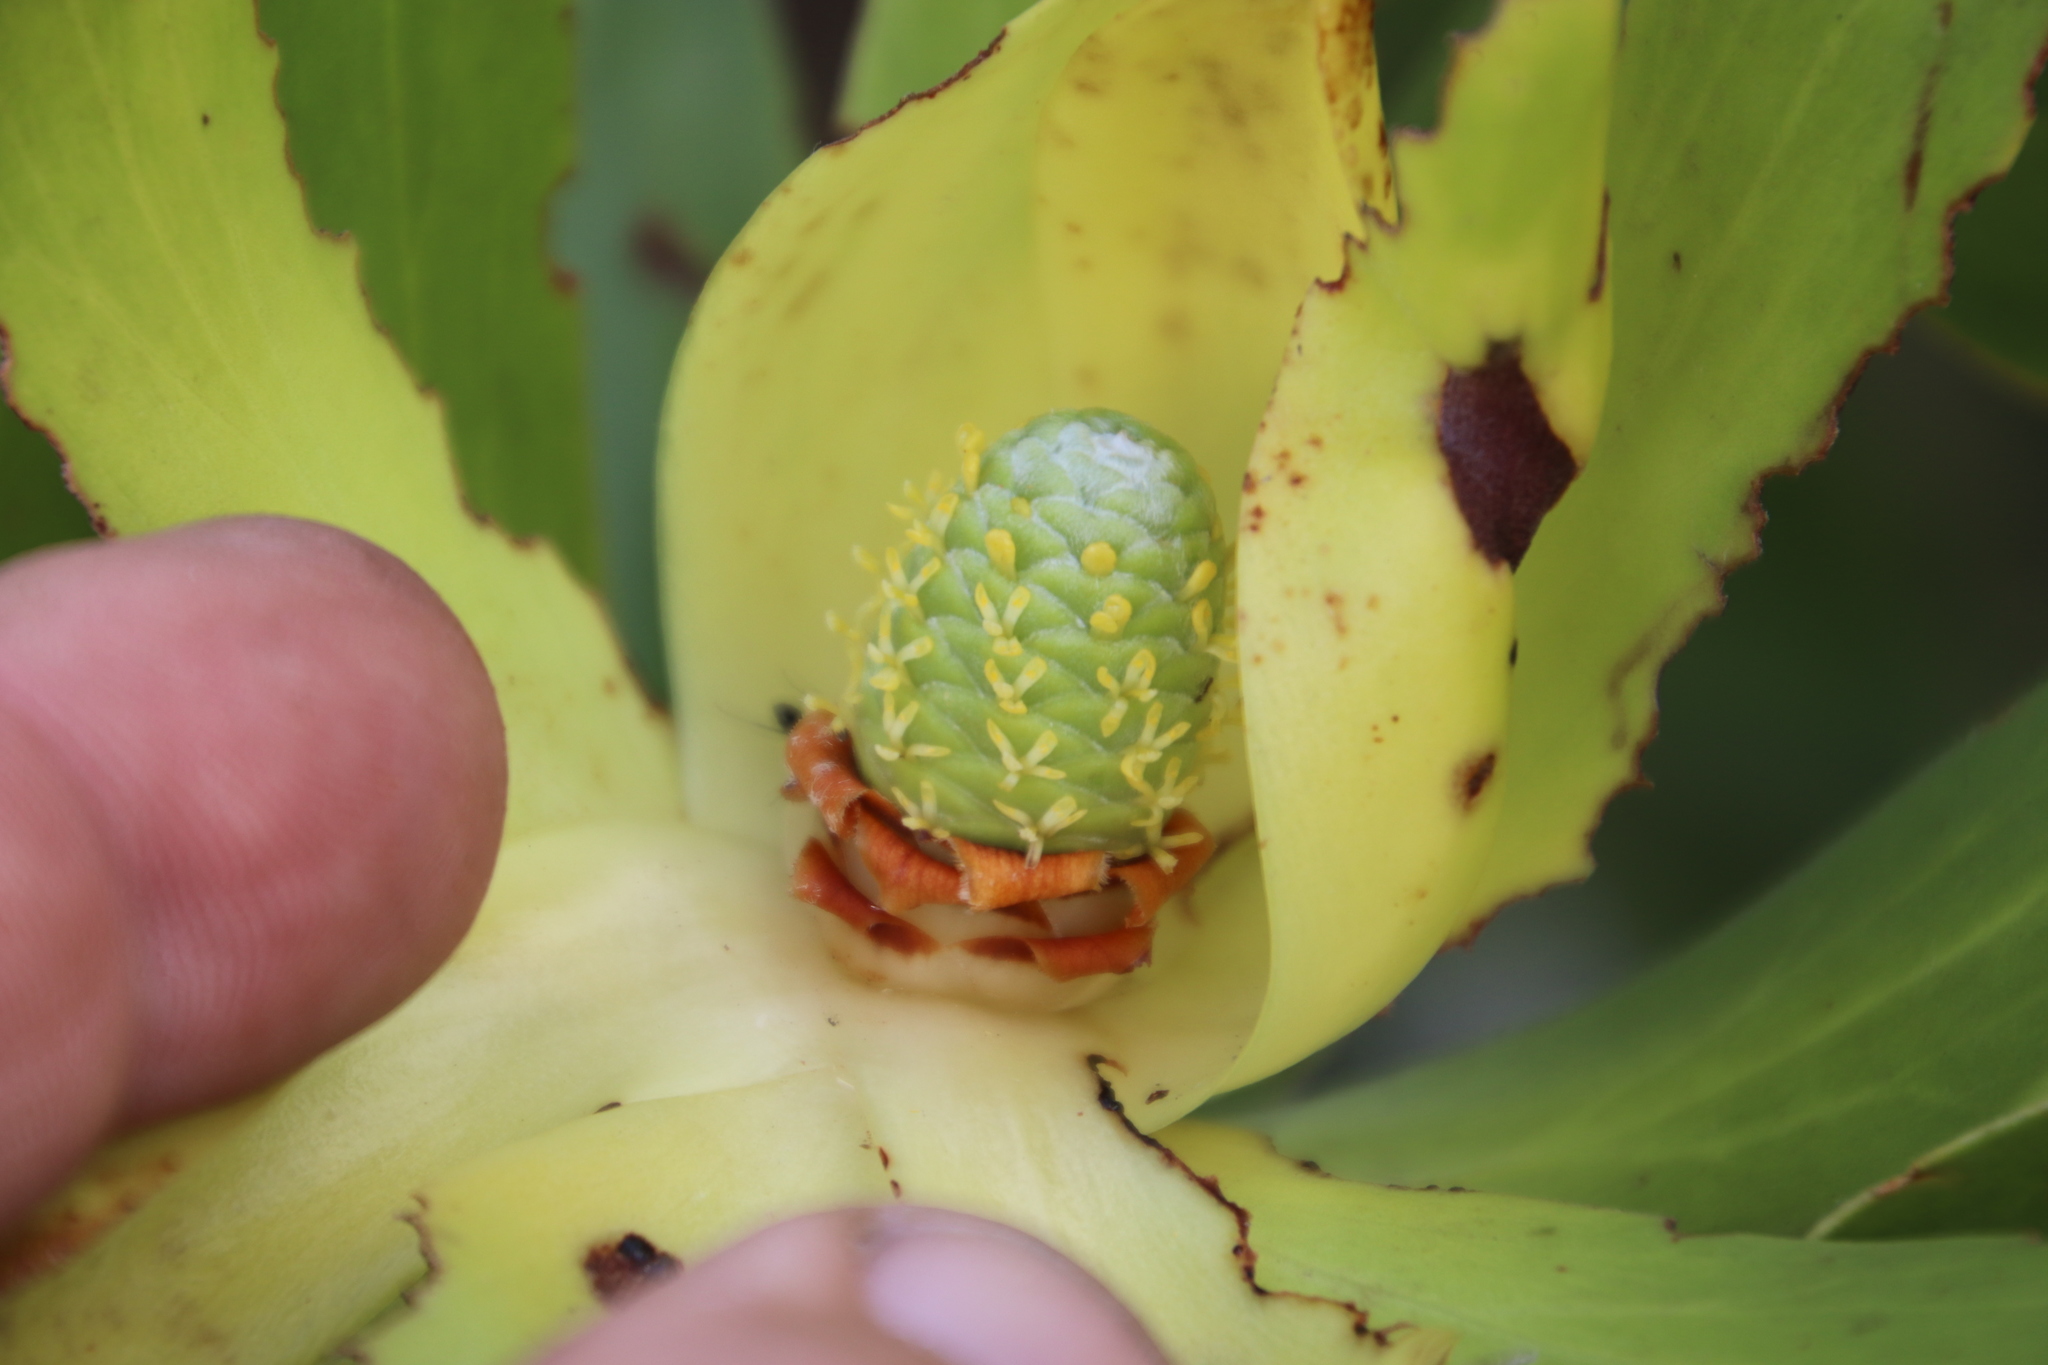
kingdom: Plantae
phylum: Tracheophyta
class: Magnoliopsida
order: Proteales
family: Proteaceae
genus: Leucadendron
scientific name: Leucadendron laureolum
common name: Golden sunshinebush
